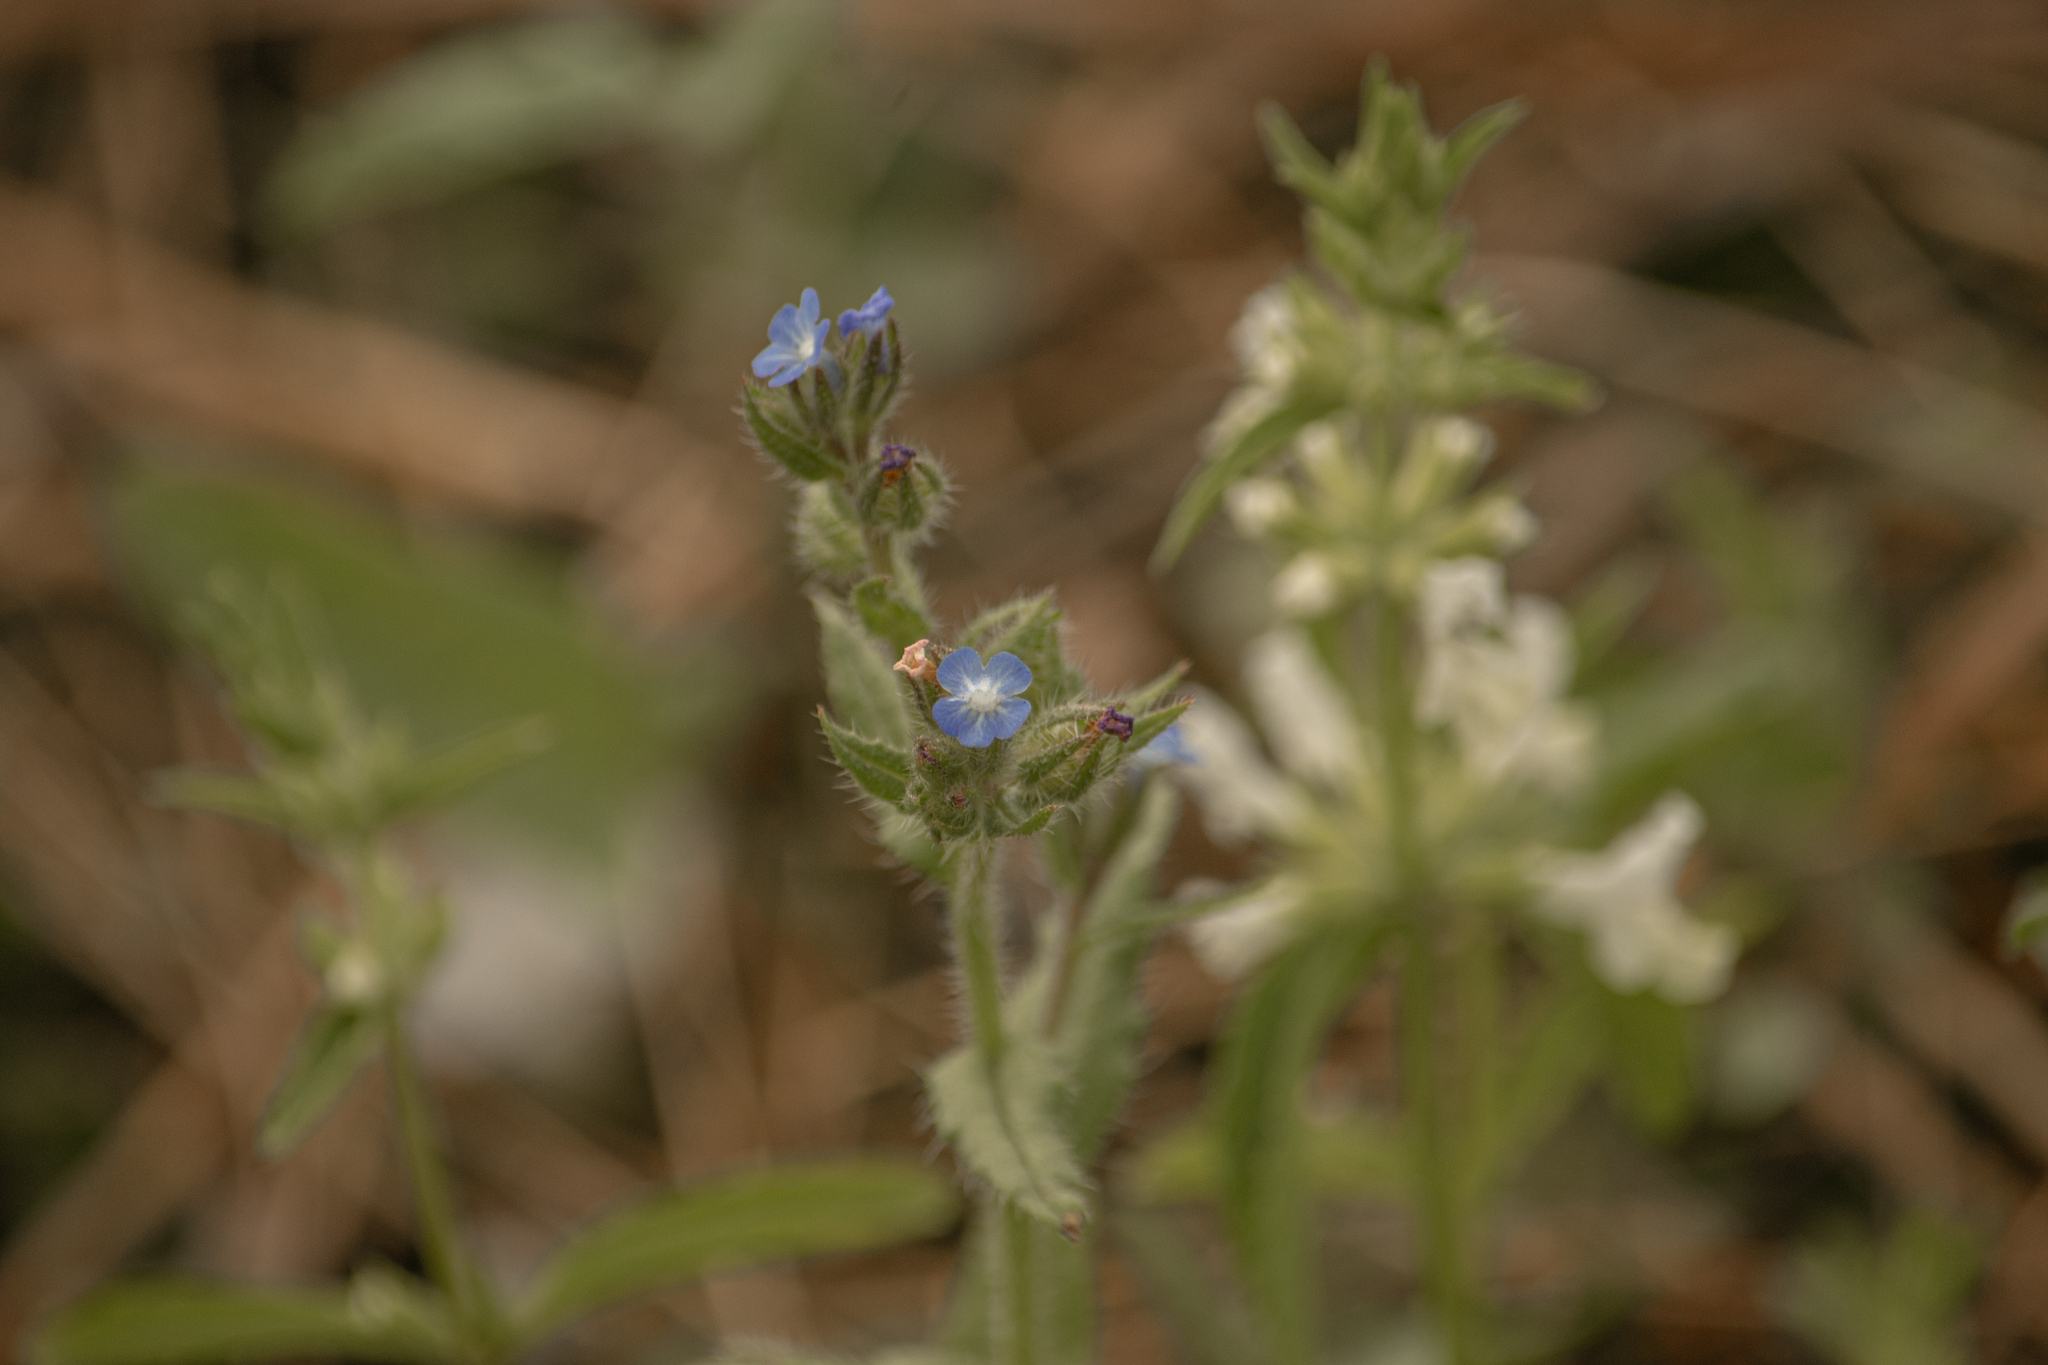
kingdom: Plantae
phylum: Tracheophyta
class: Magnoliopsida
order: Boraginales
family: Boraginaceae
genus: Lycopsis
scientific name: Lycopsis arvensis
